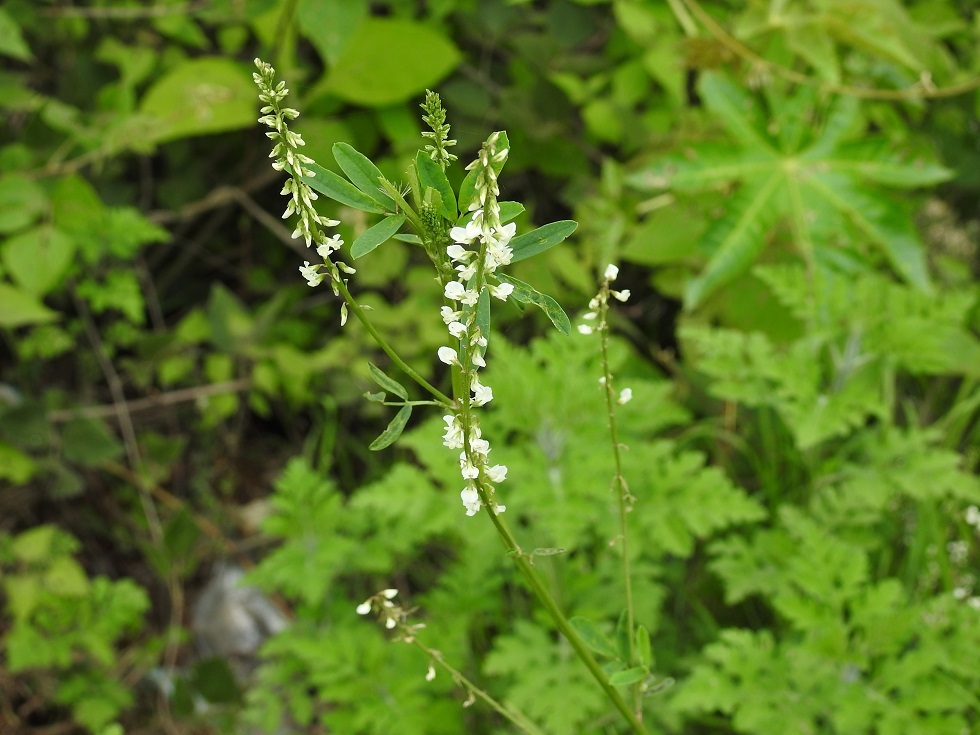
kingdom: Plantae
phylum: Tracheophyta
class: Magnoliopsida
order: Fabales
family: Fabaceae
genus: Melilotus
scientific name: Melilotus albus
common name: White melilot
